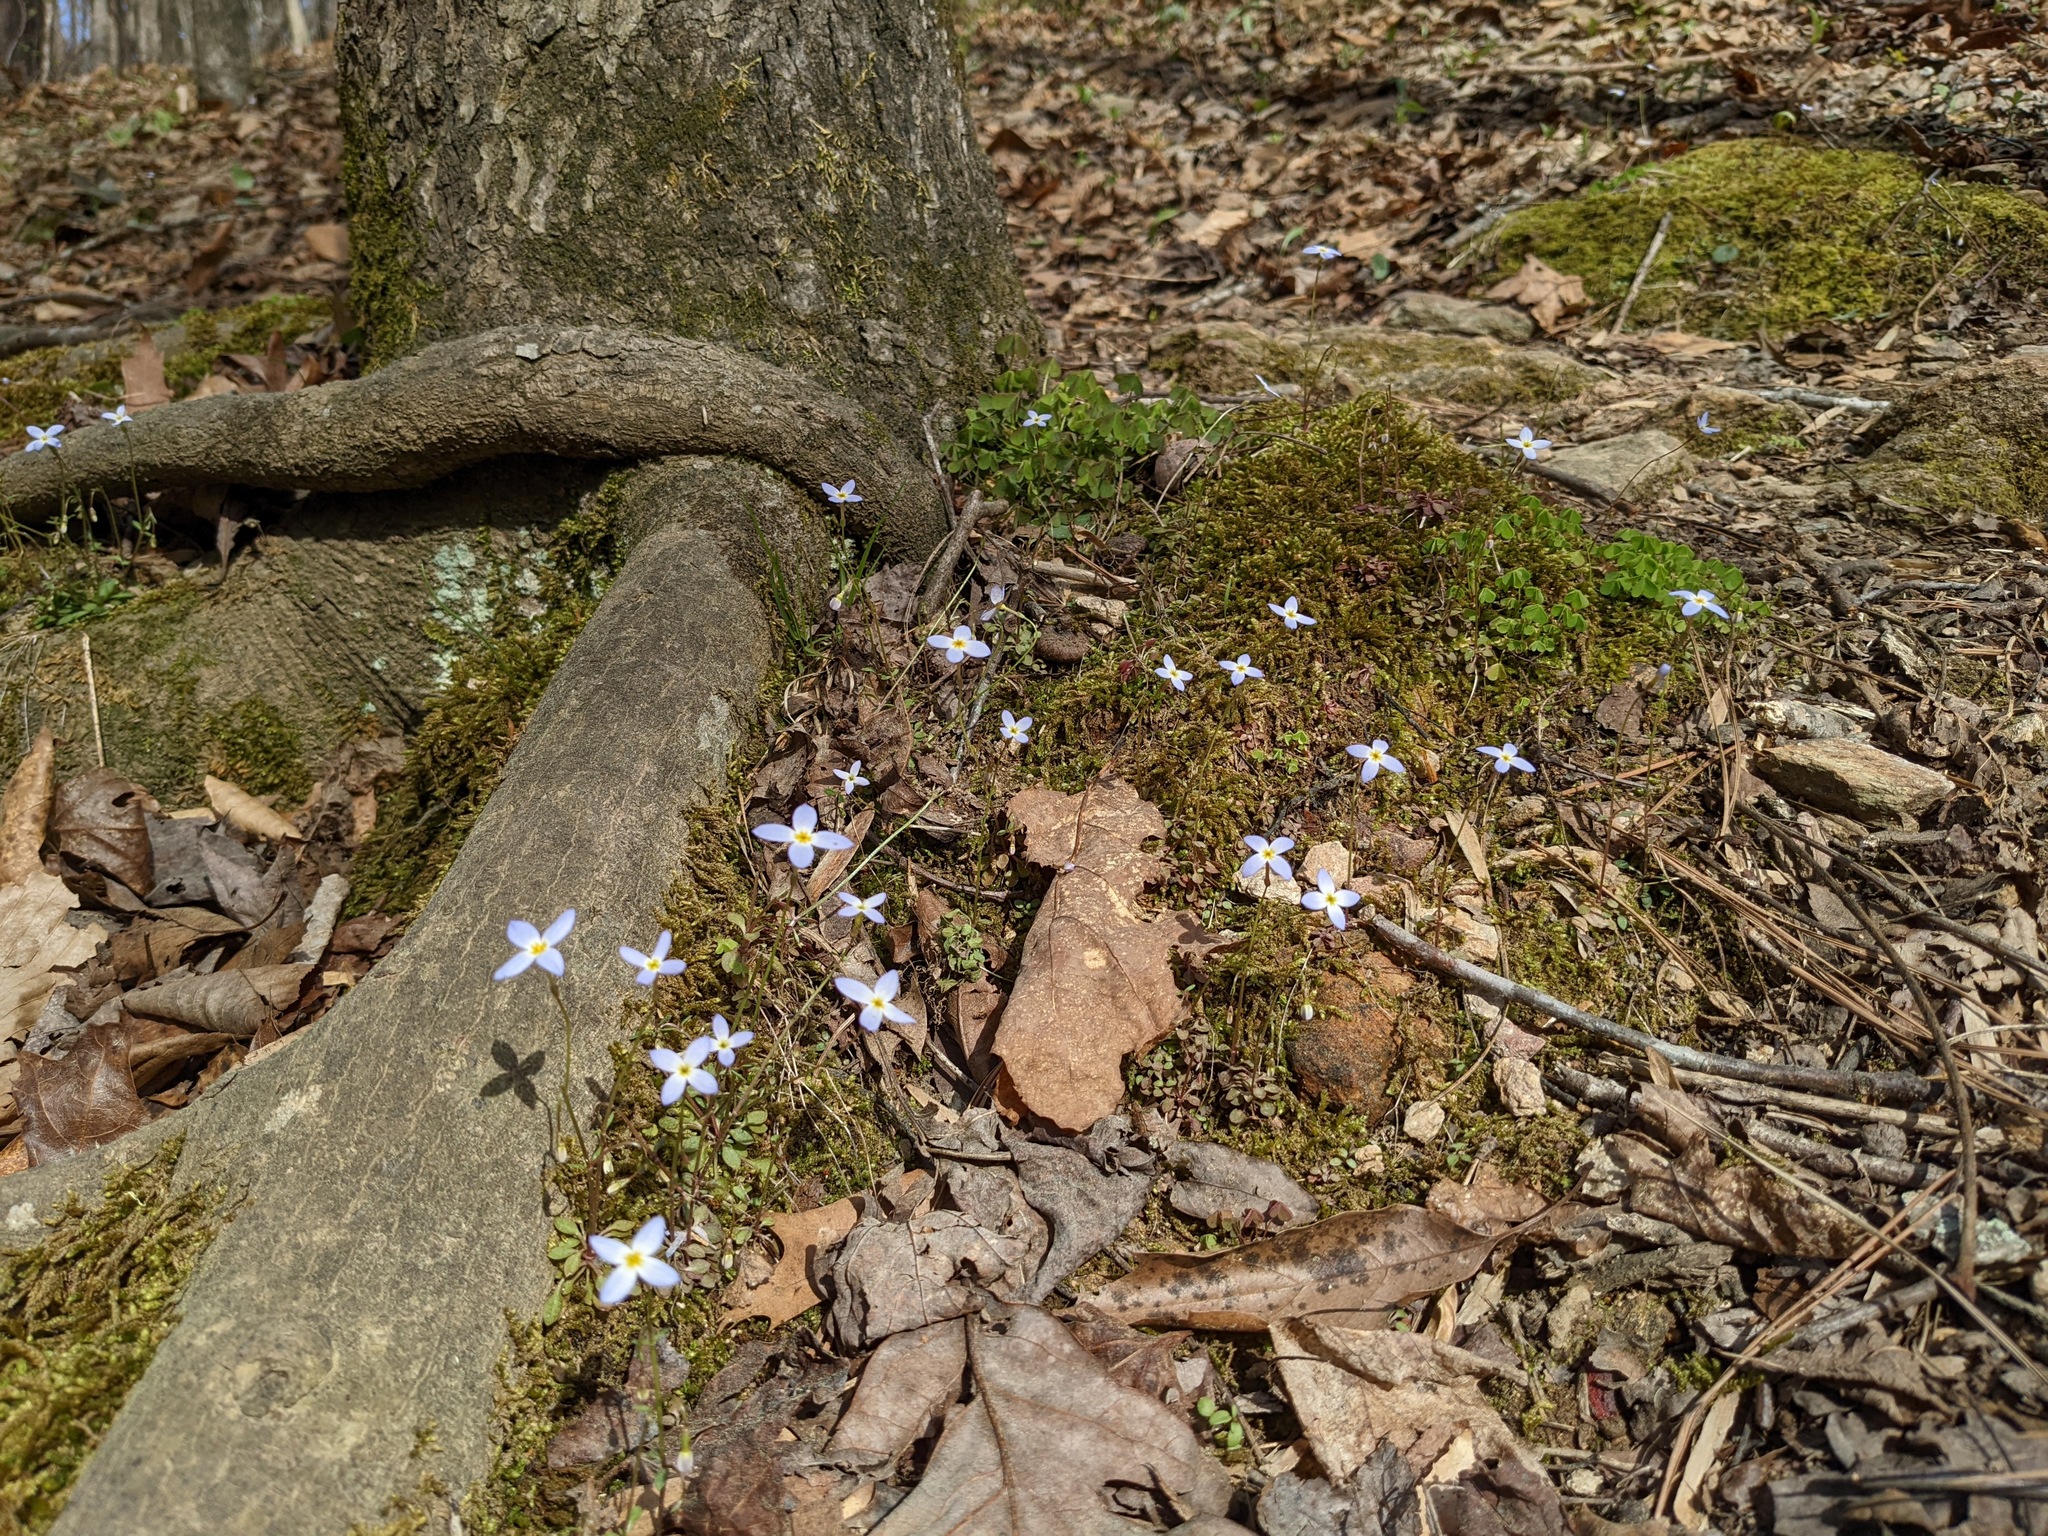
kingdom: Plantae
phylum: Tracheophyta
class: Magnoliopsida
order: Gentianales
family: Rubiaceae
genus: Houstonia
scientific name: Houstonia caerulea
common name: Bluets
